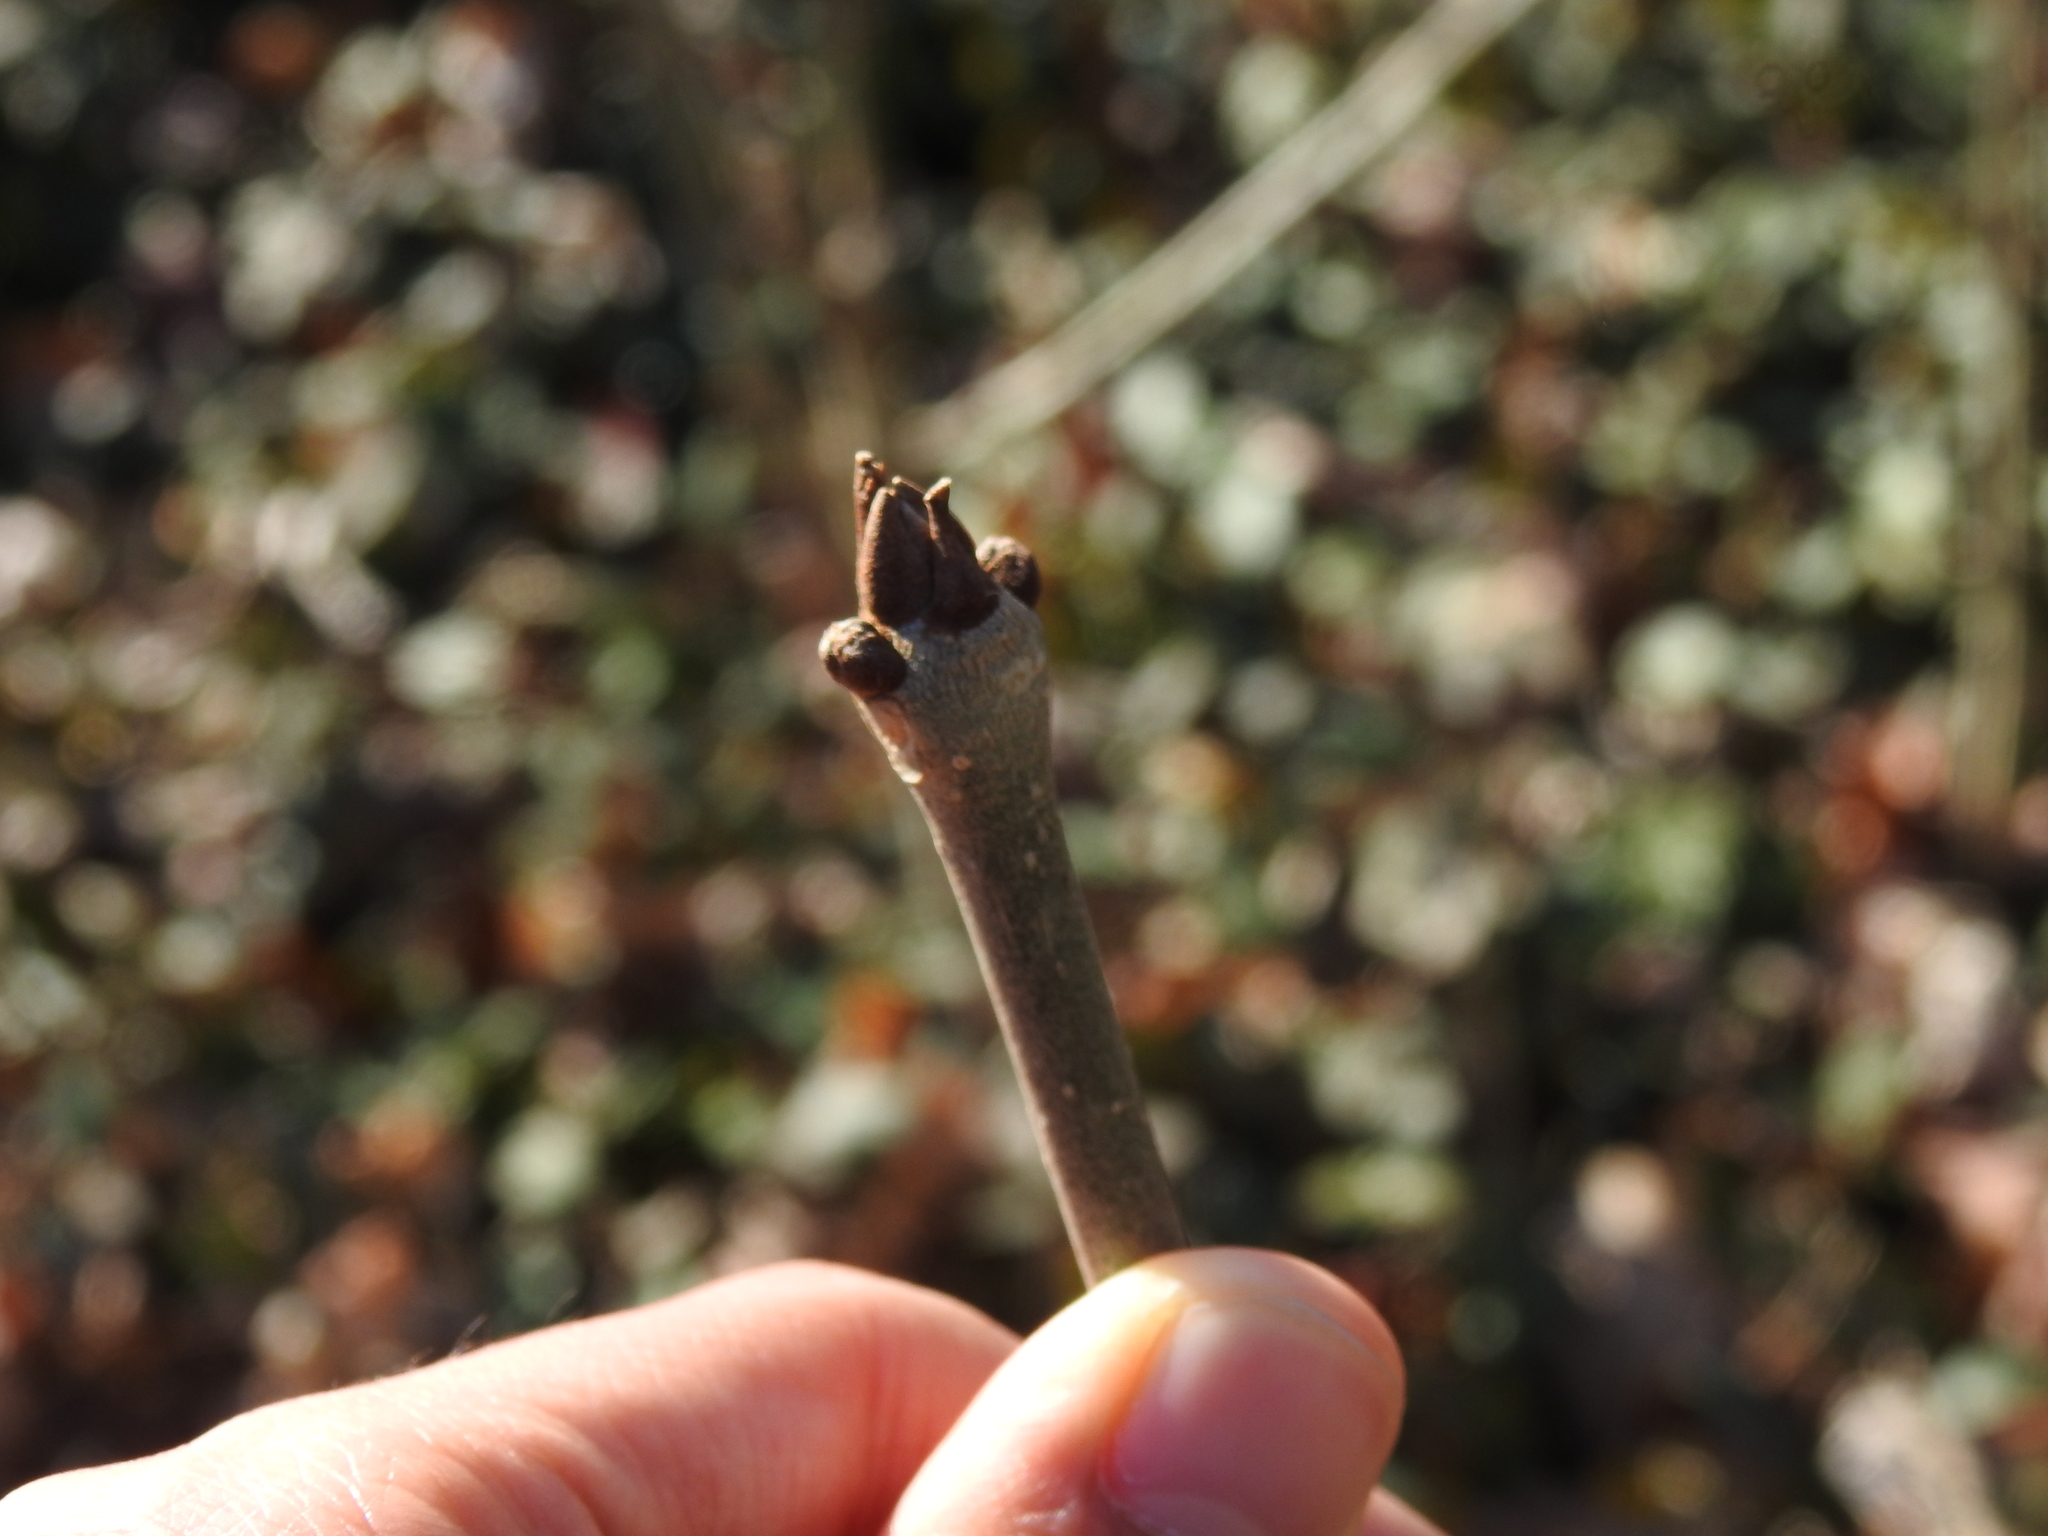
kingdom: Plantae
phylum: Tracheophyta
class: Magnoliopsida
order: Lamiales
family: Oleaceae
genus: Fraxinus
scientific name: Fraxinus pennsylvanica
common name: Green ash
